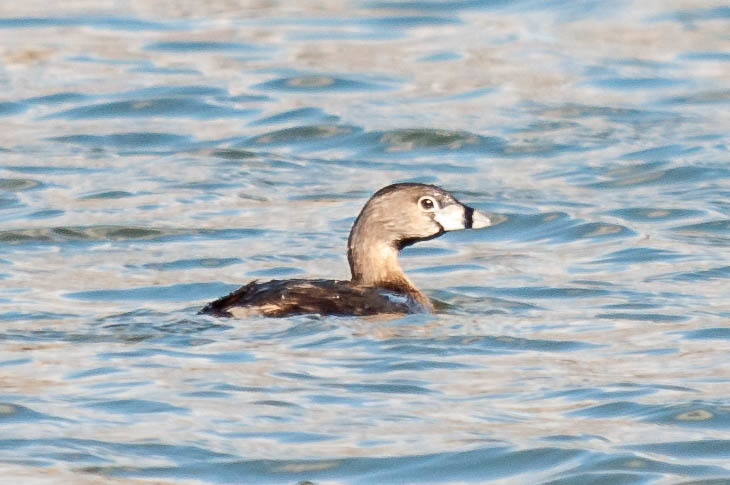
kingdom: Animalia
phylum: Chordata
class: Aves
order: Podicipediformes
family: Podicipedidae
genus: Podilymbus
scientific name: Podilymbus podiceps
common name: Pied-billed grebe
